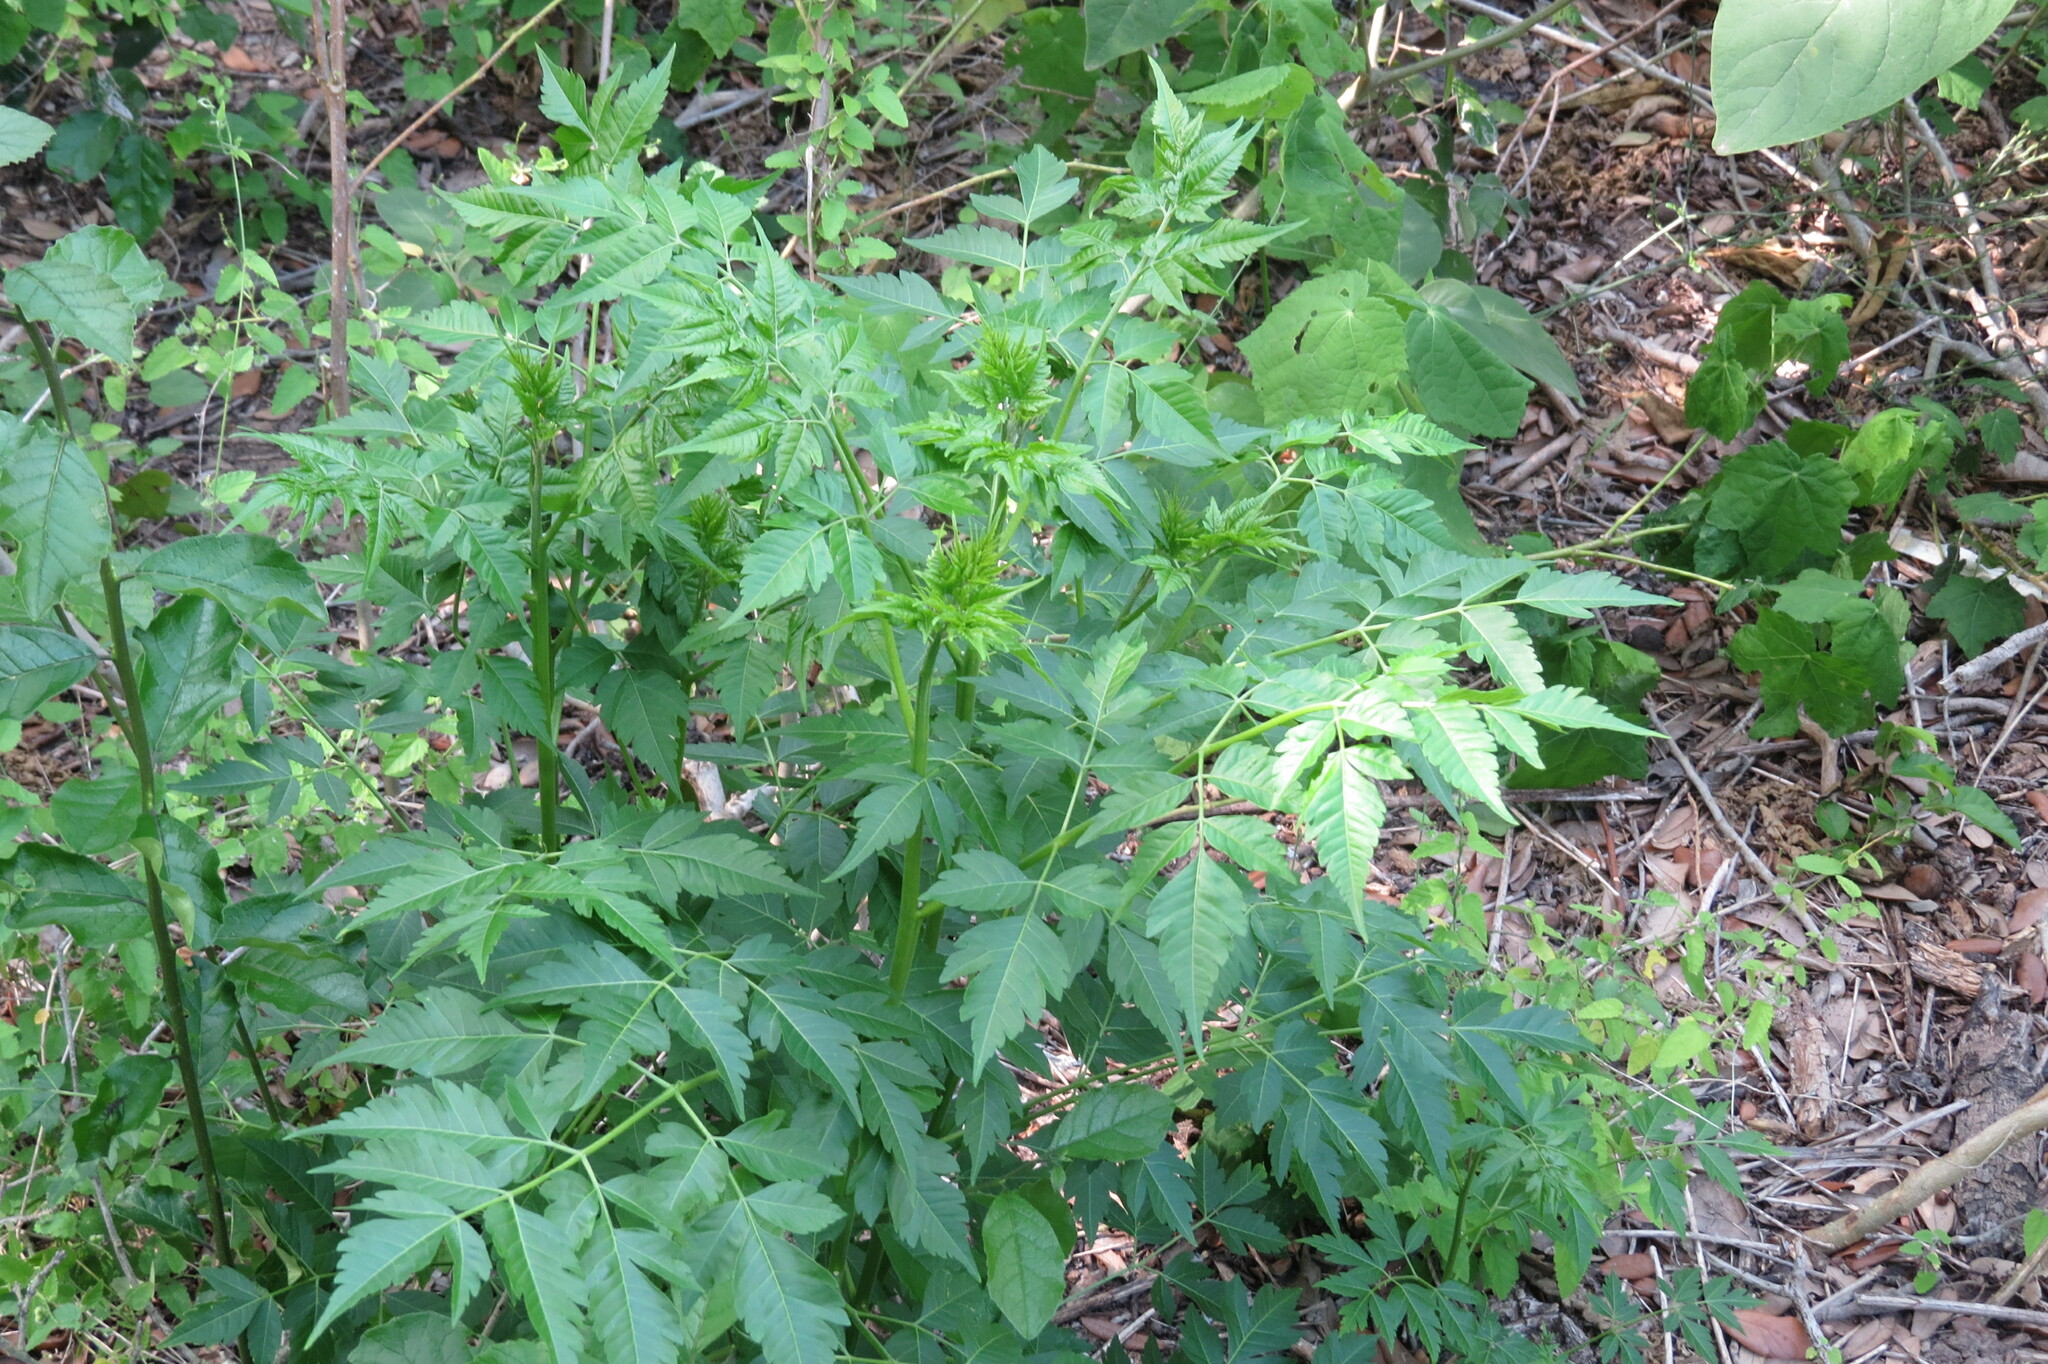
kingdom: Plantae
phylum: Tracheophyta
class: Magnoliopsida
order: Sapindales
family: Meliaceae
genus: Melia
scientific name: Melia azedarach
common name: Chinaberrytree
